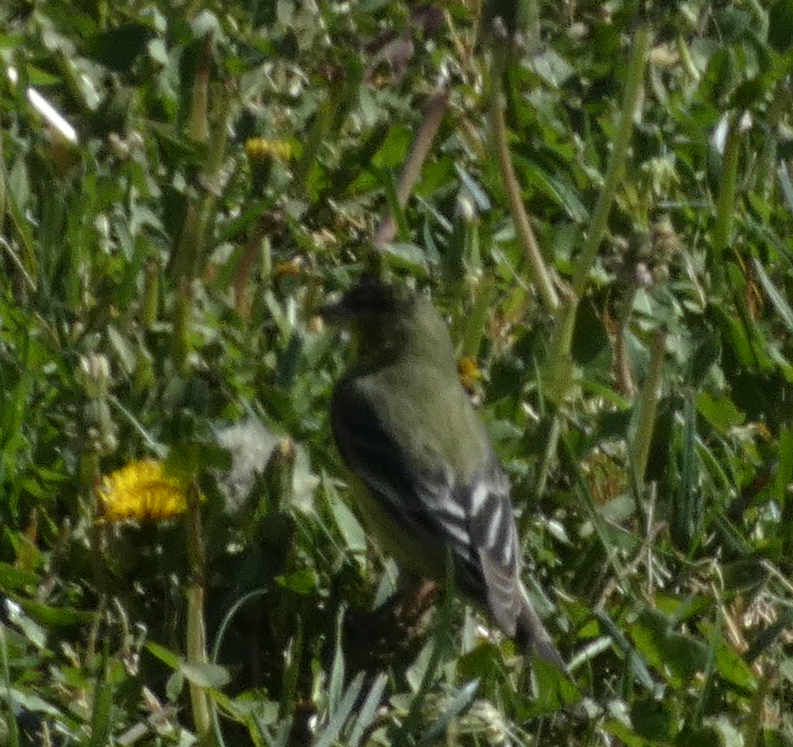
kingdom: Animalia
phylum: Chordata
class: Aves
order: Passeriformes
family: Fringillidae
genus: Spinus
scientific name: Spinus psaltria
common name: Lesser goldfinch
